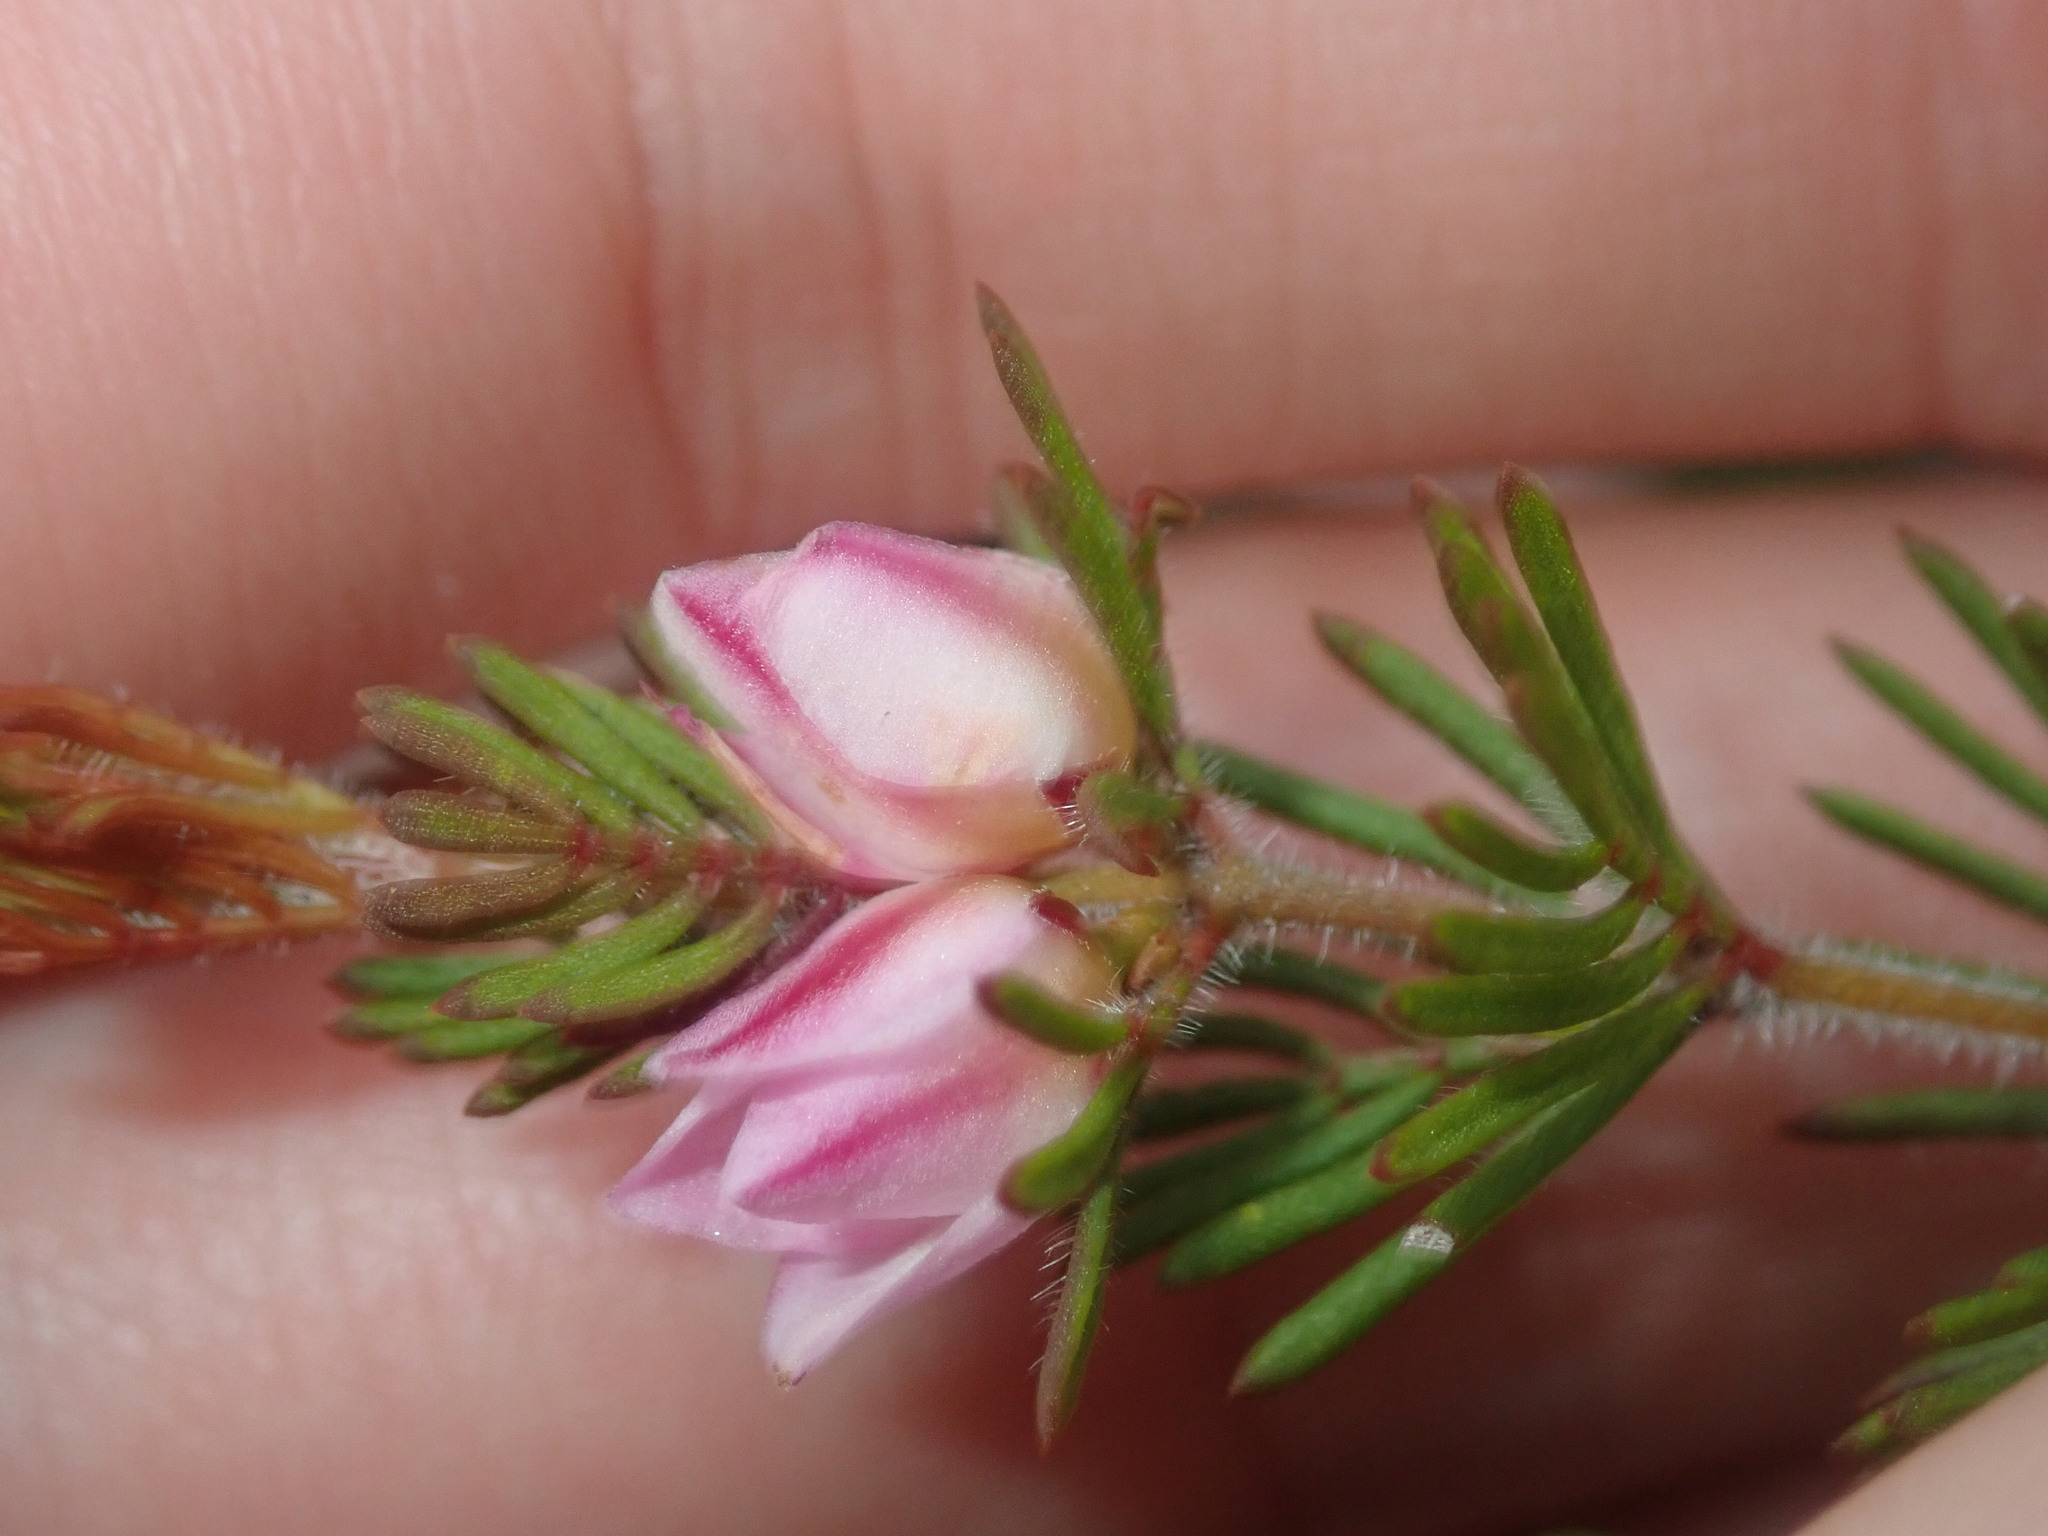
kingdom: Plantae
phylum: Tracheophyta
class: Magnoliopsida
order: Sapindales
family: Rutaceae
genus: Boronia
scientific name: Boronia albiflora
